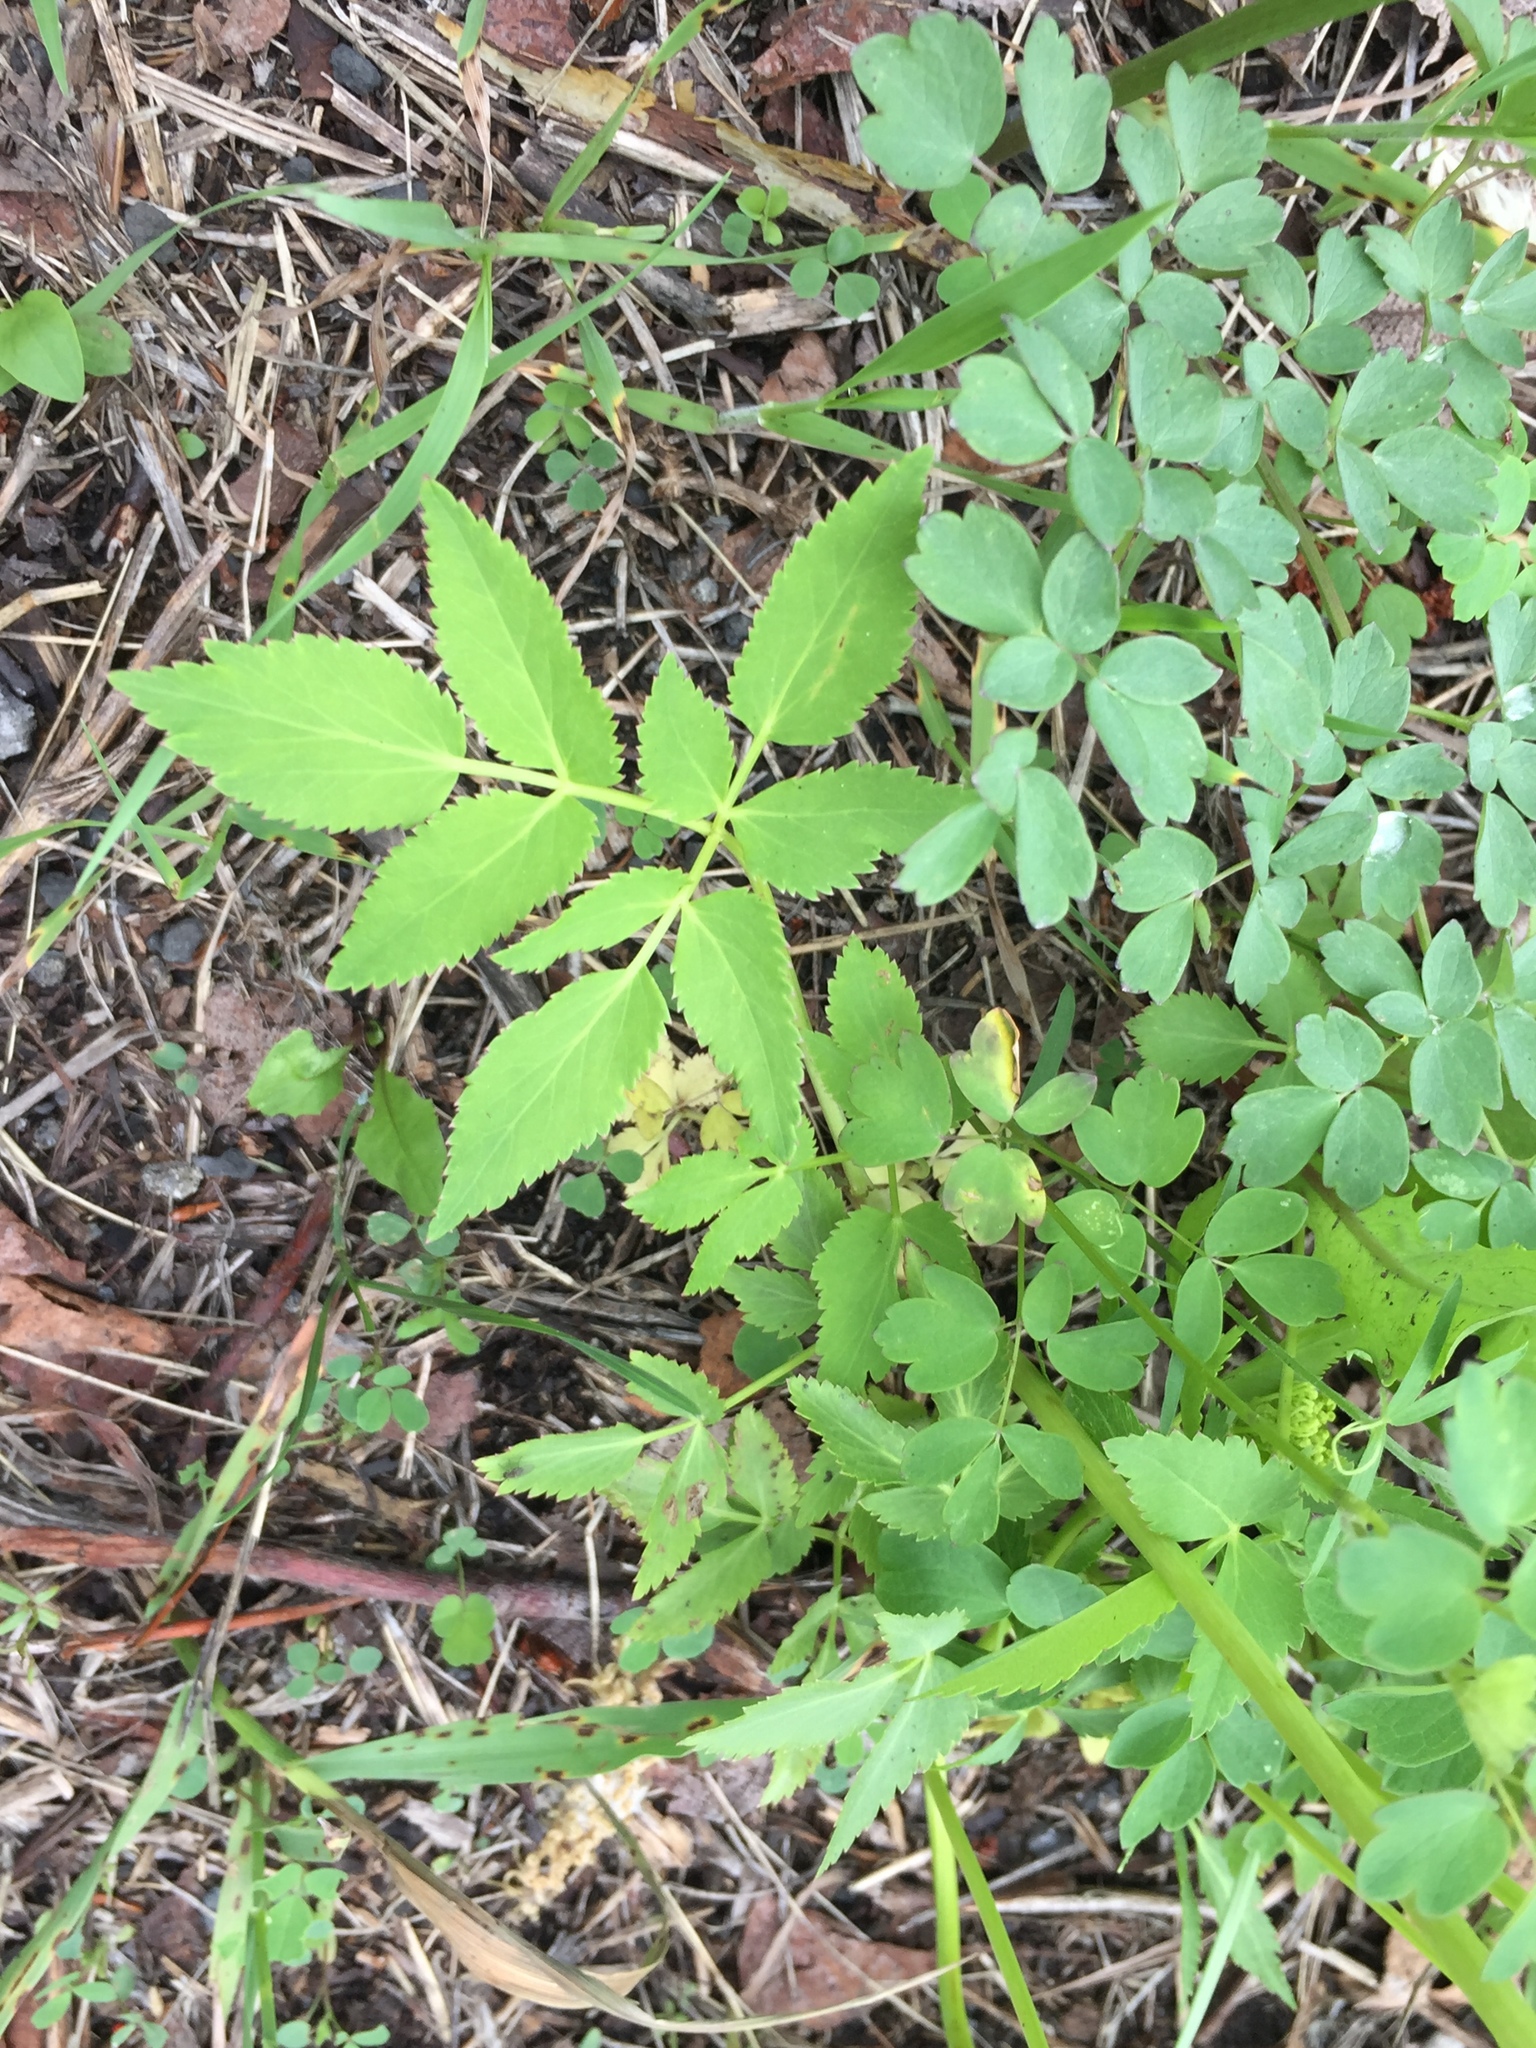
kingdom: Plantae
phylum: Tracheophyta
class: Magnoliopsida
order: Apiales
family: Apiaceae
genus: Zizia
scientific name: Zizia aurea
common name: Golden alexanders
